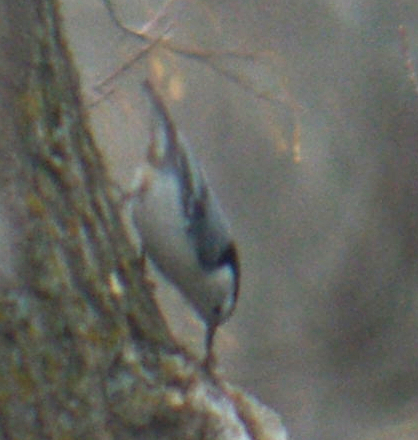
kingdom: Animalia
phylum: Chordata
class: Aves
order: Passeriformes
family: Sittidae
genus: Sitta
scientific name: Sitta carolinensis
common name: White-breasted nuthatch
